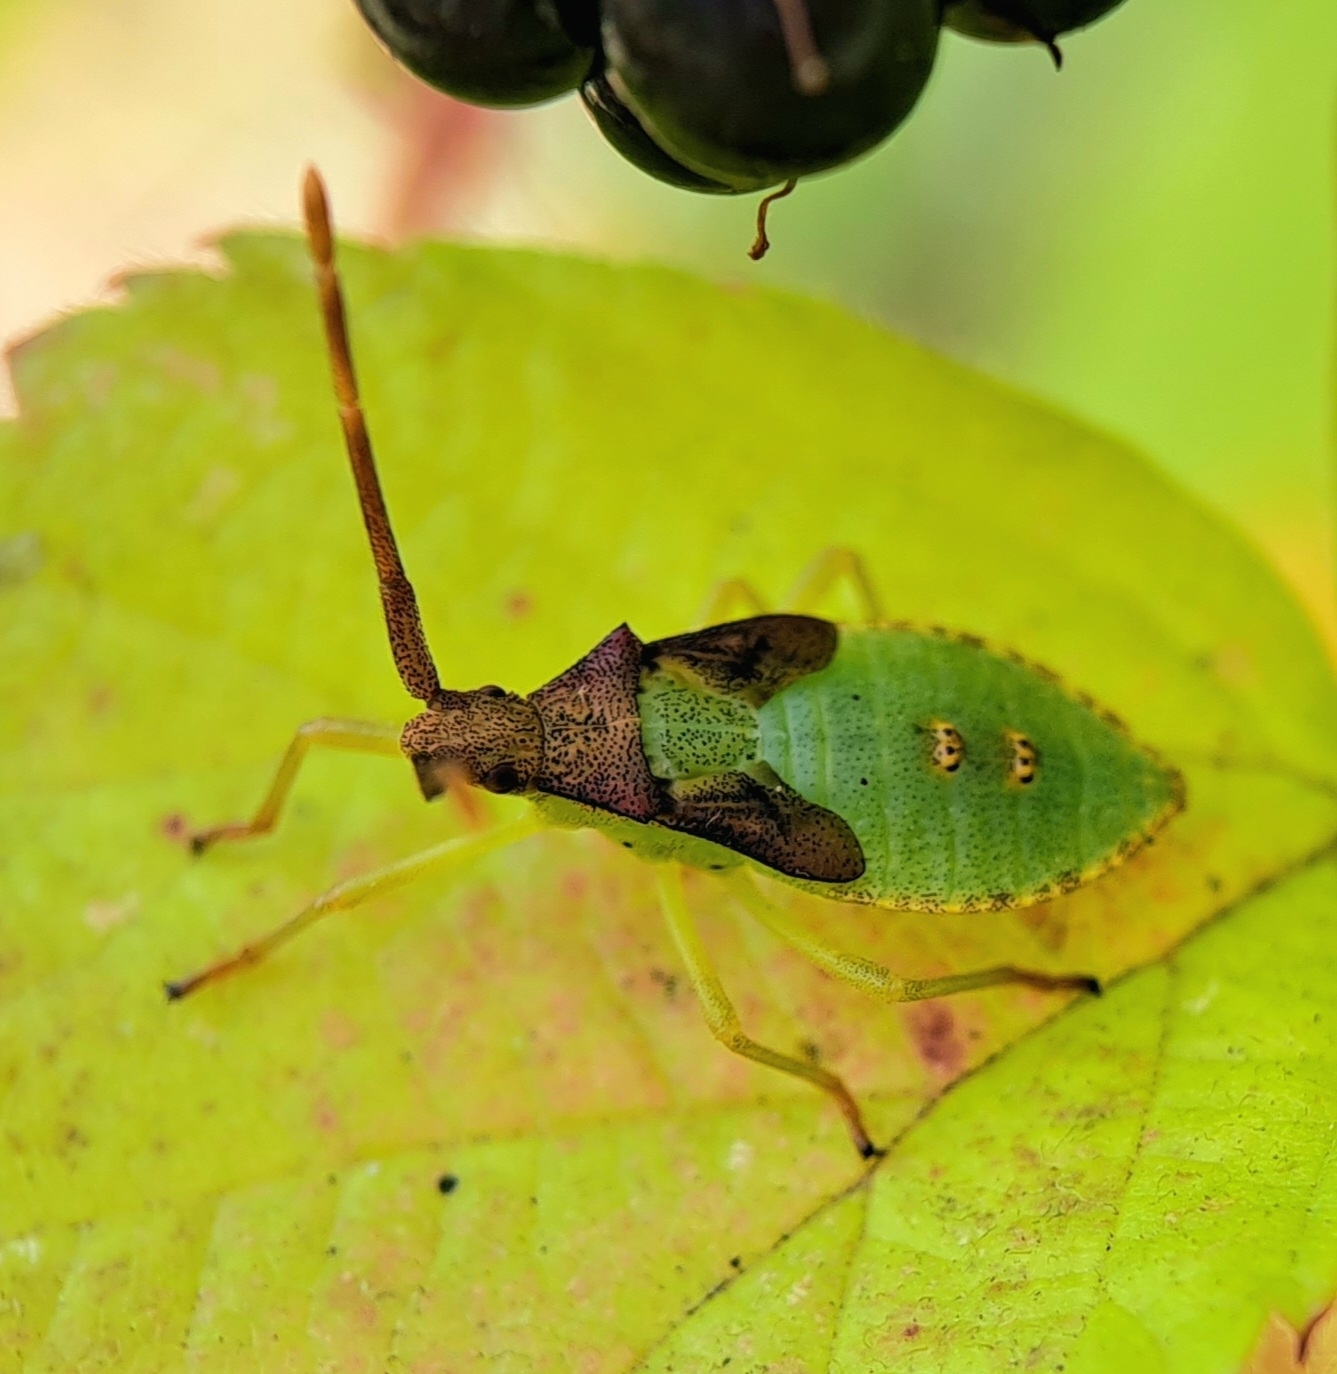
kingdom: Animalia
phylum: Arthropoda
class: Insecta
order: Hemiptera
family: Coreidae
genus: Gonocerus
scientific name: Gonocerus acuteangulatus
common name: Box bug
